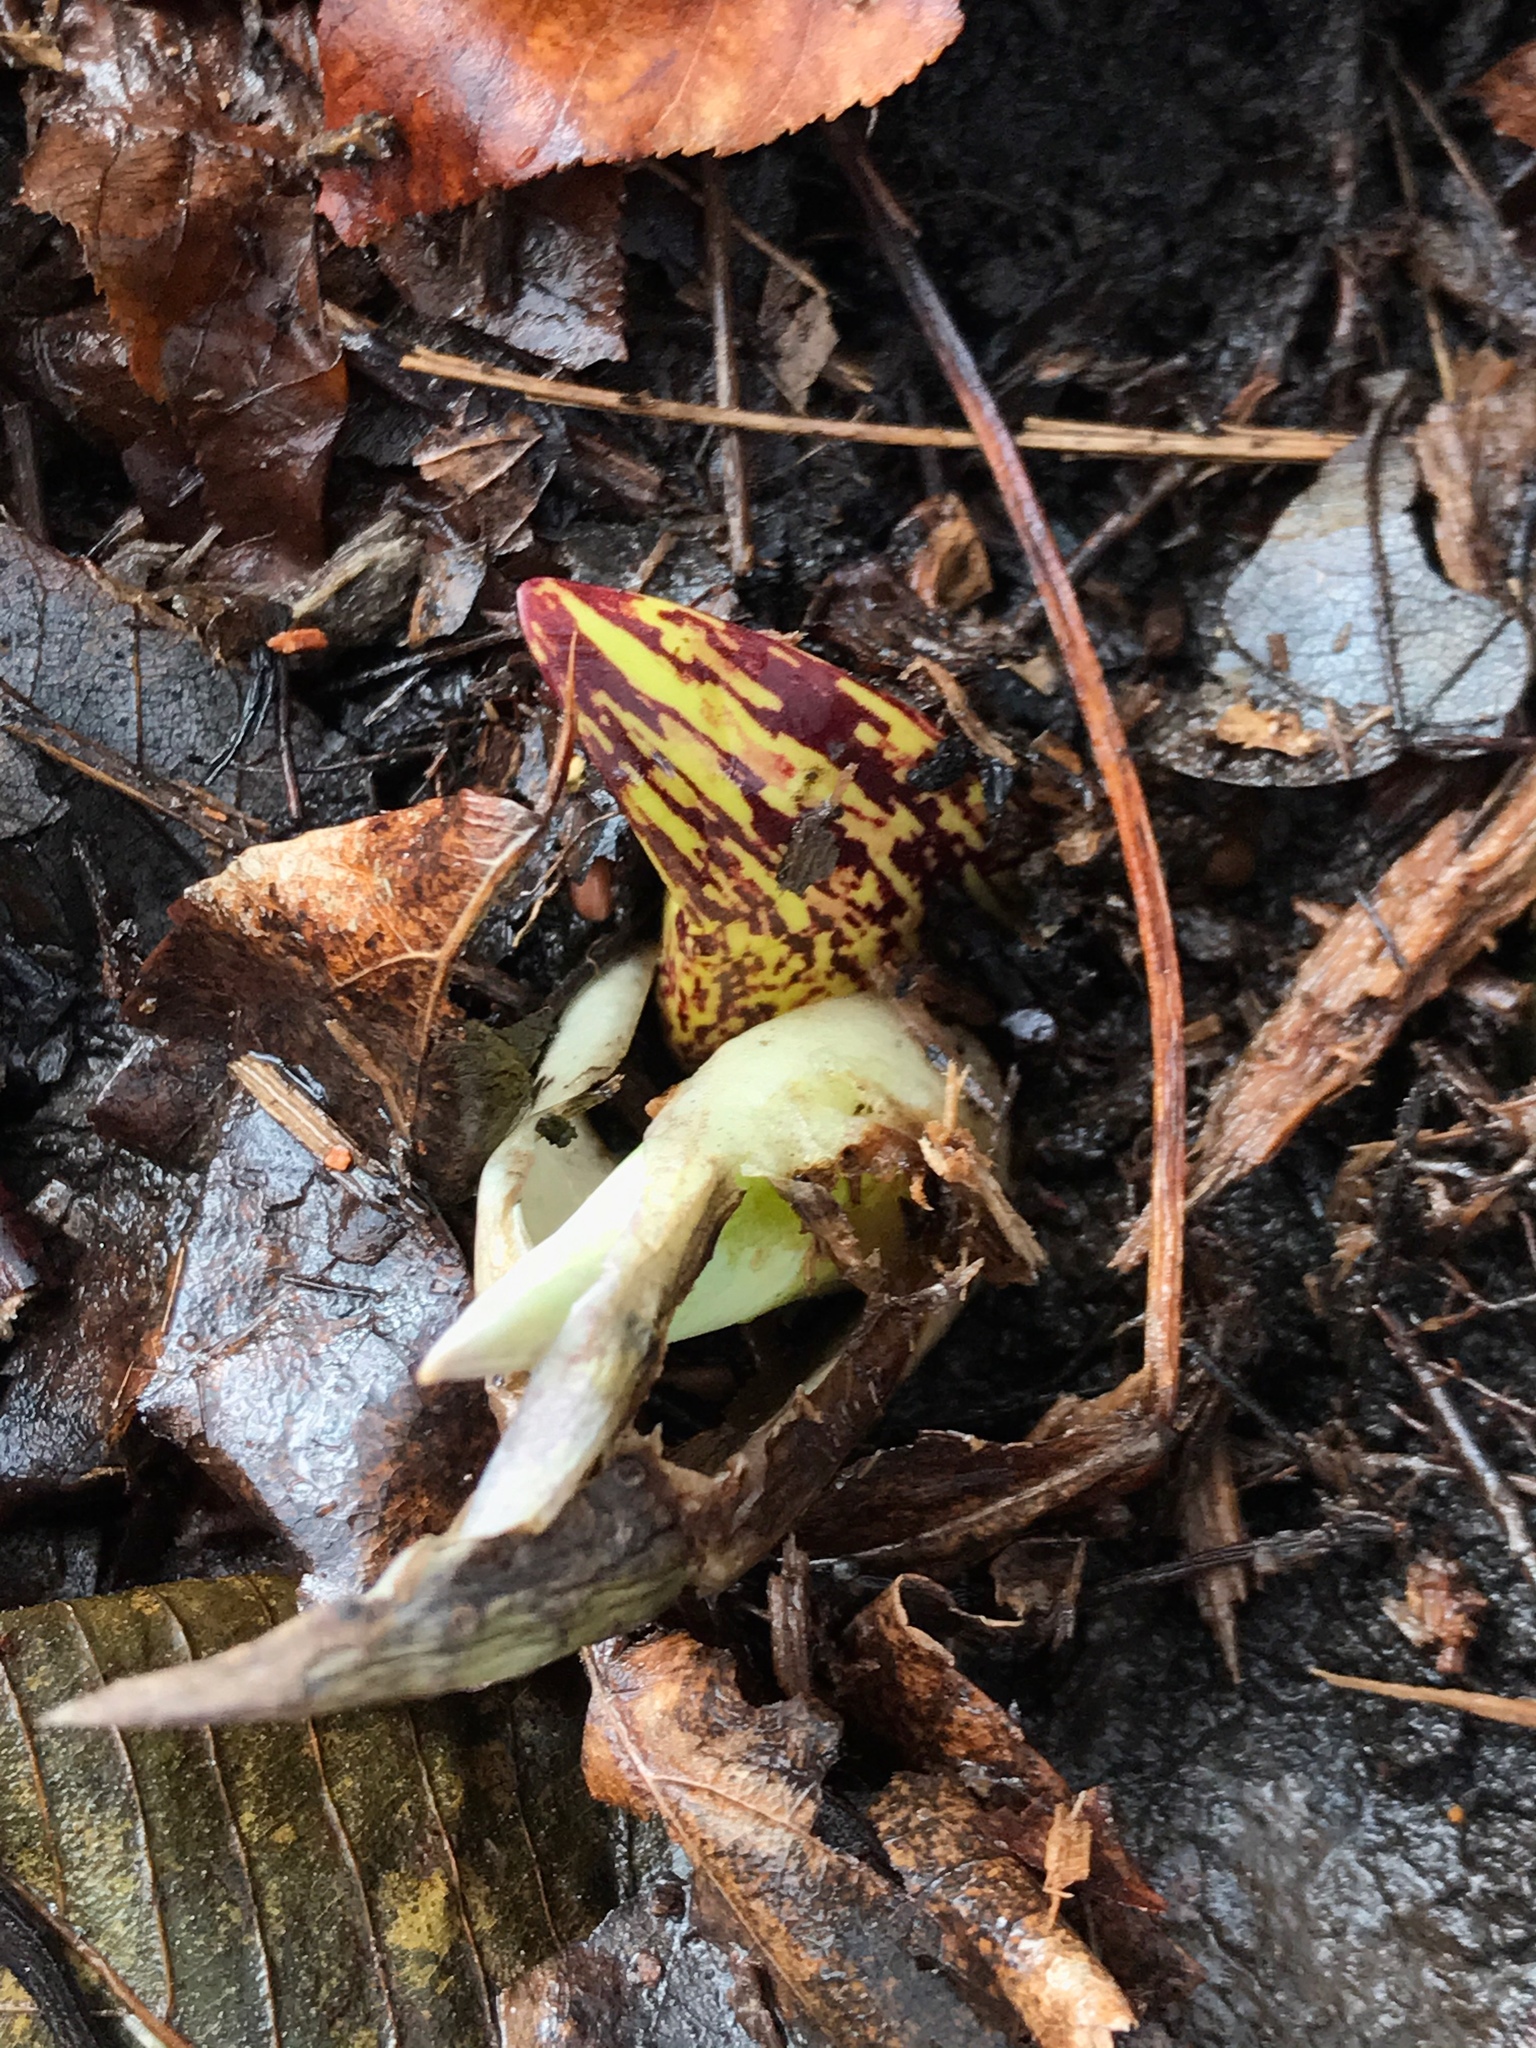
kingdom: Plantae
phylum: Tracheophyta
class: Liliopsida
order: Alismatales
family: Araceae
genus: Symplocarpus
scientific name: Symplocarpus foetidus
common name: Eastern skunk cabbage
